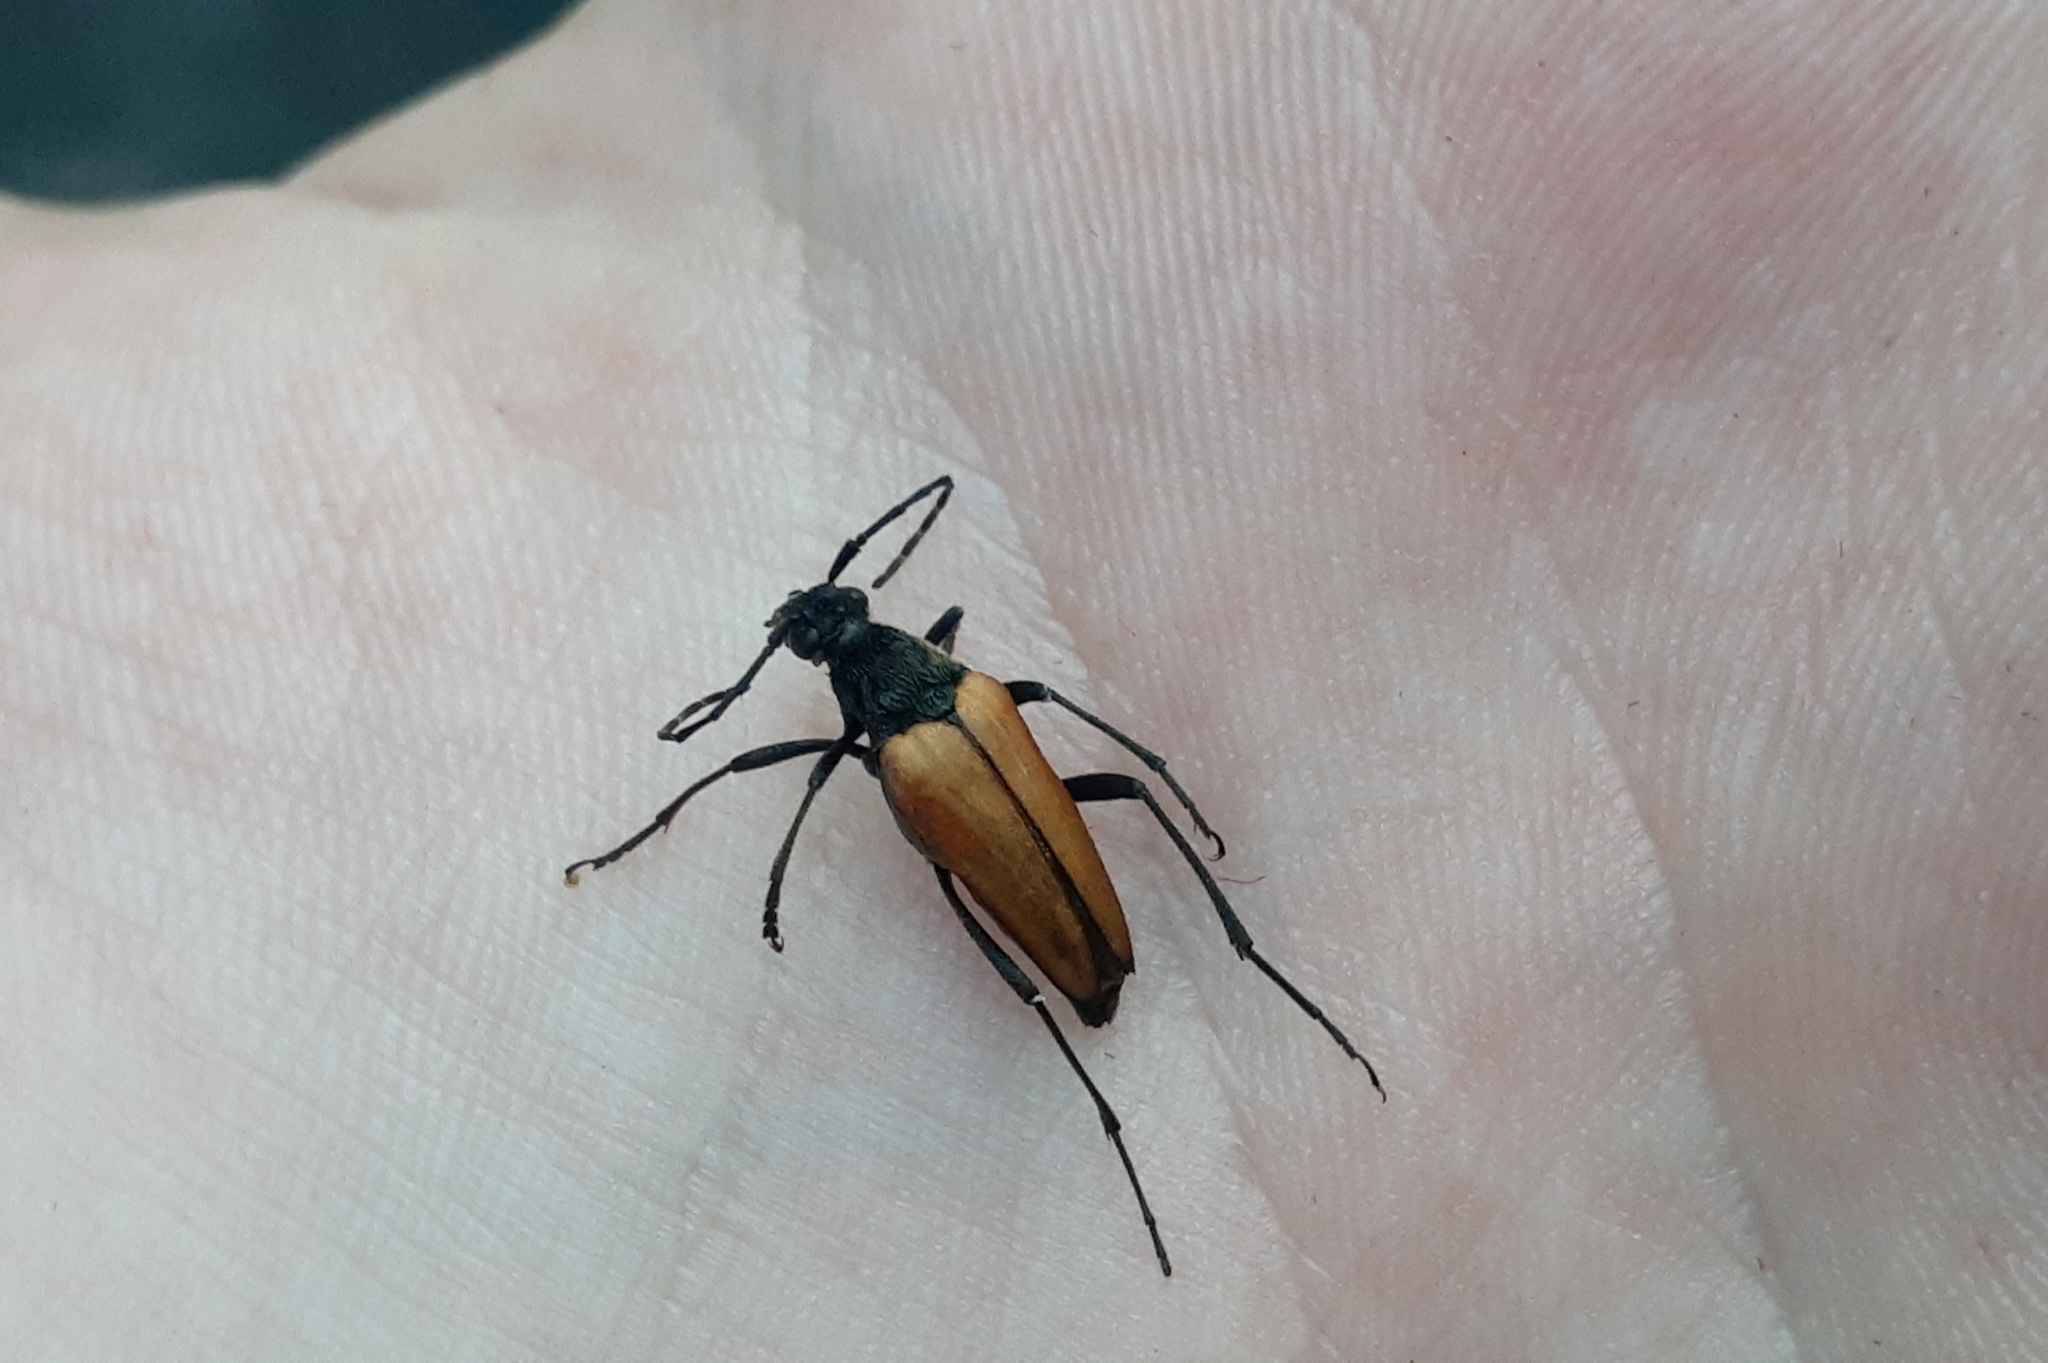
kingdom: Animalia
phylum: Arthropoda
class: Insecta
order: Coleoptera
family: Cerambycidae
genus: Etorofus
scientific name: Etorofus
